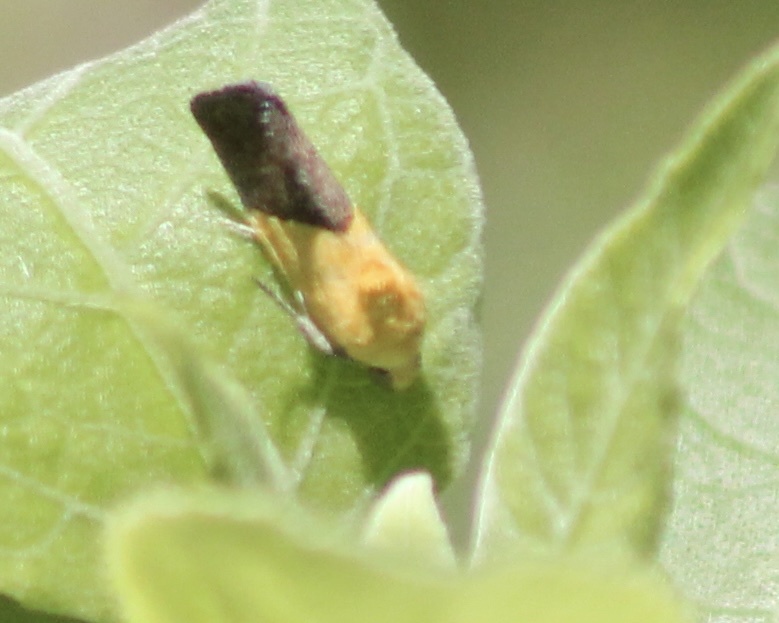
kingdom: Animalia
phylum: Arthropoda
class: Insecta
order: Lepidoptera
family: Noctuidae
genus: Acontia
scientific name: Acontia semiflava
